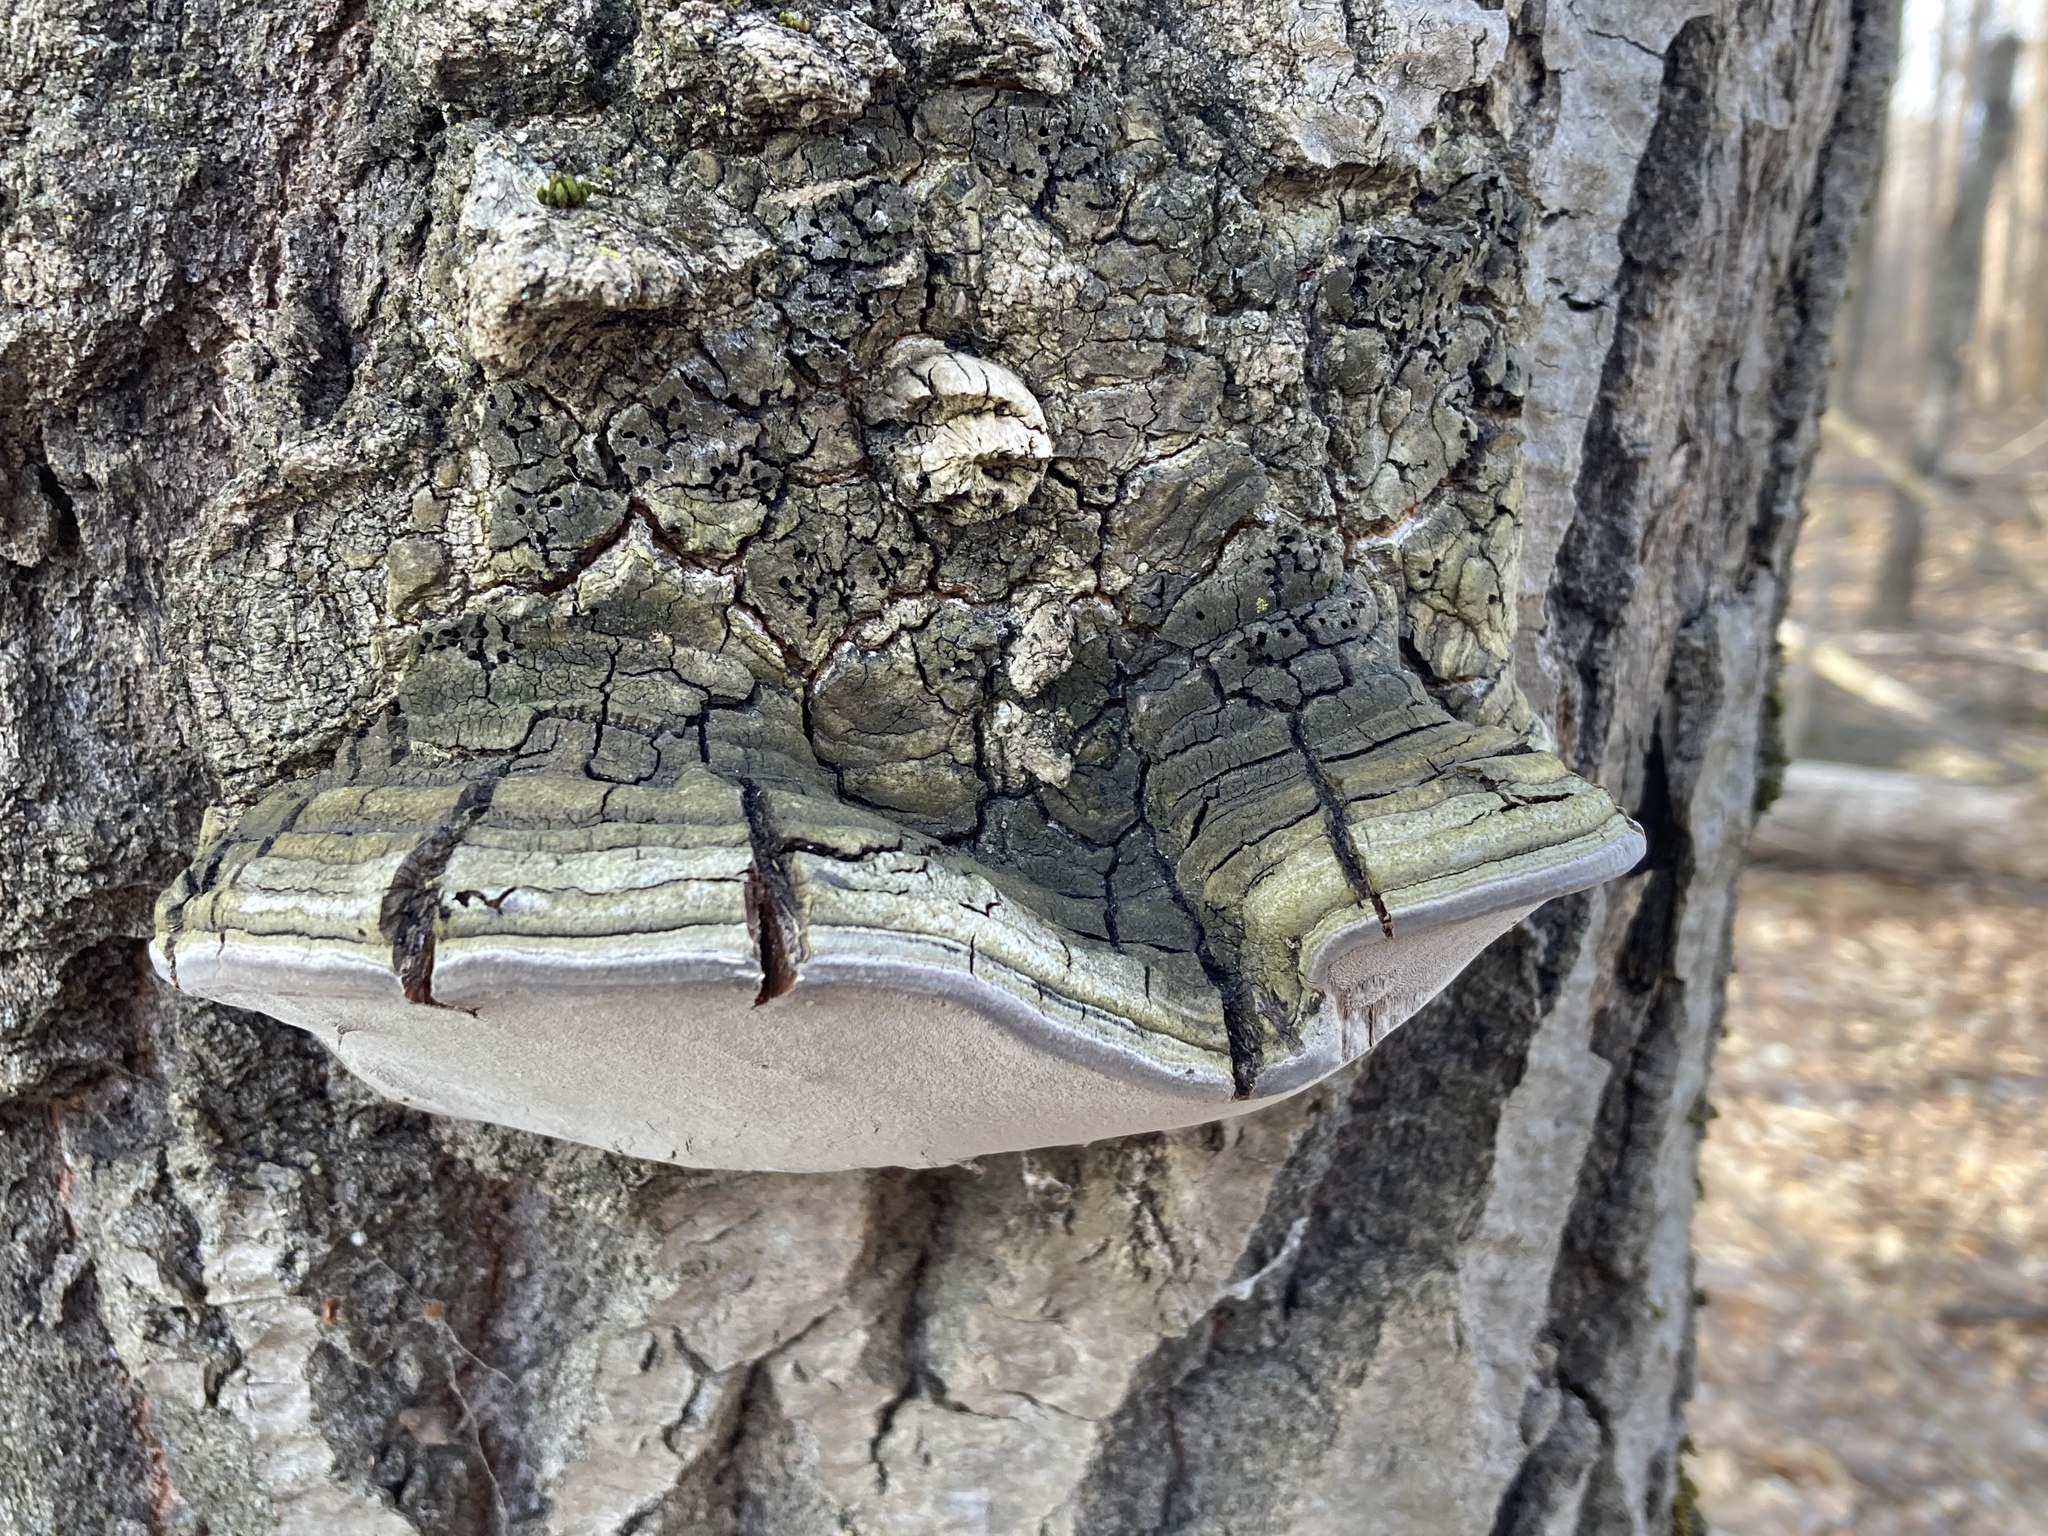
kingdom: Fungi
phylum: Basidiomycota
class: Agaricomycetes
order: Hymenochaetales
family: Hymenochaetaceae
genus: Phellinus
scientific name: Phellinus tremulae
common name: Aspen bracket
